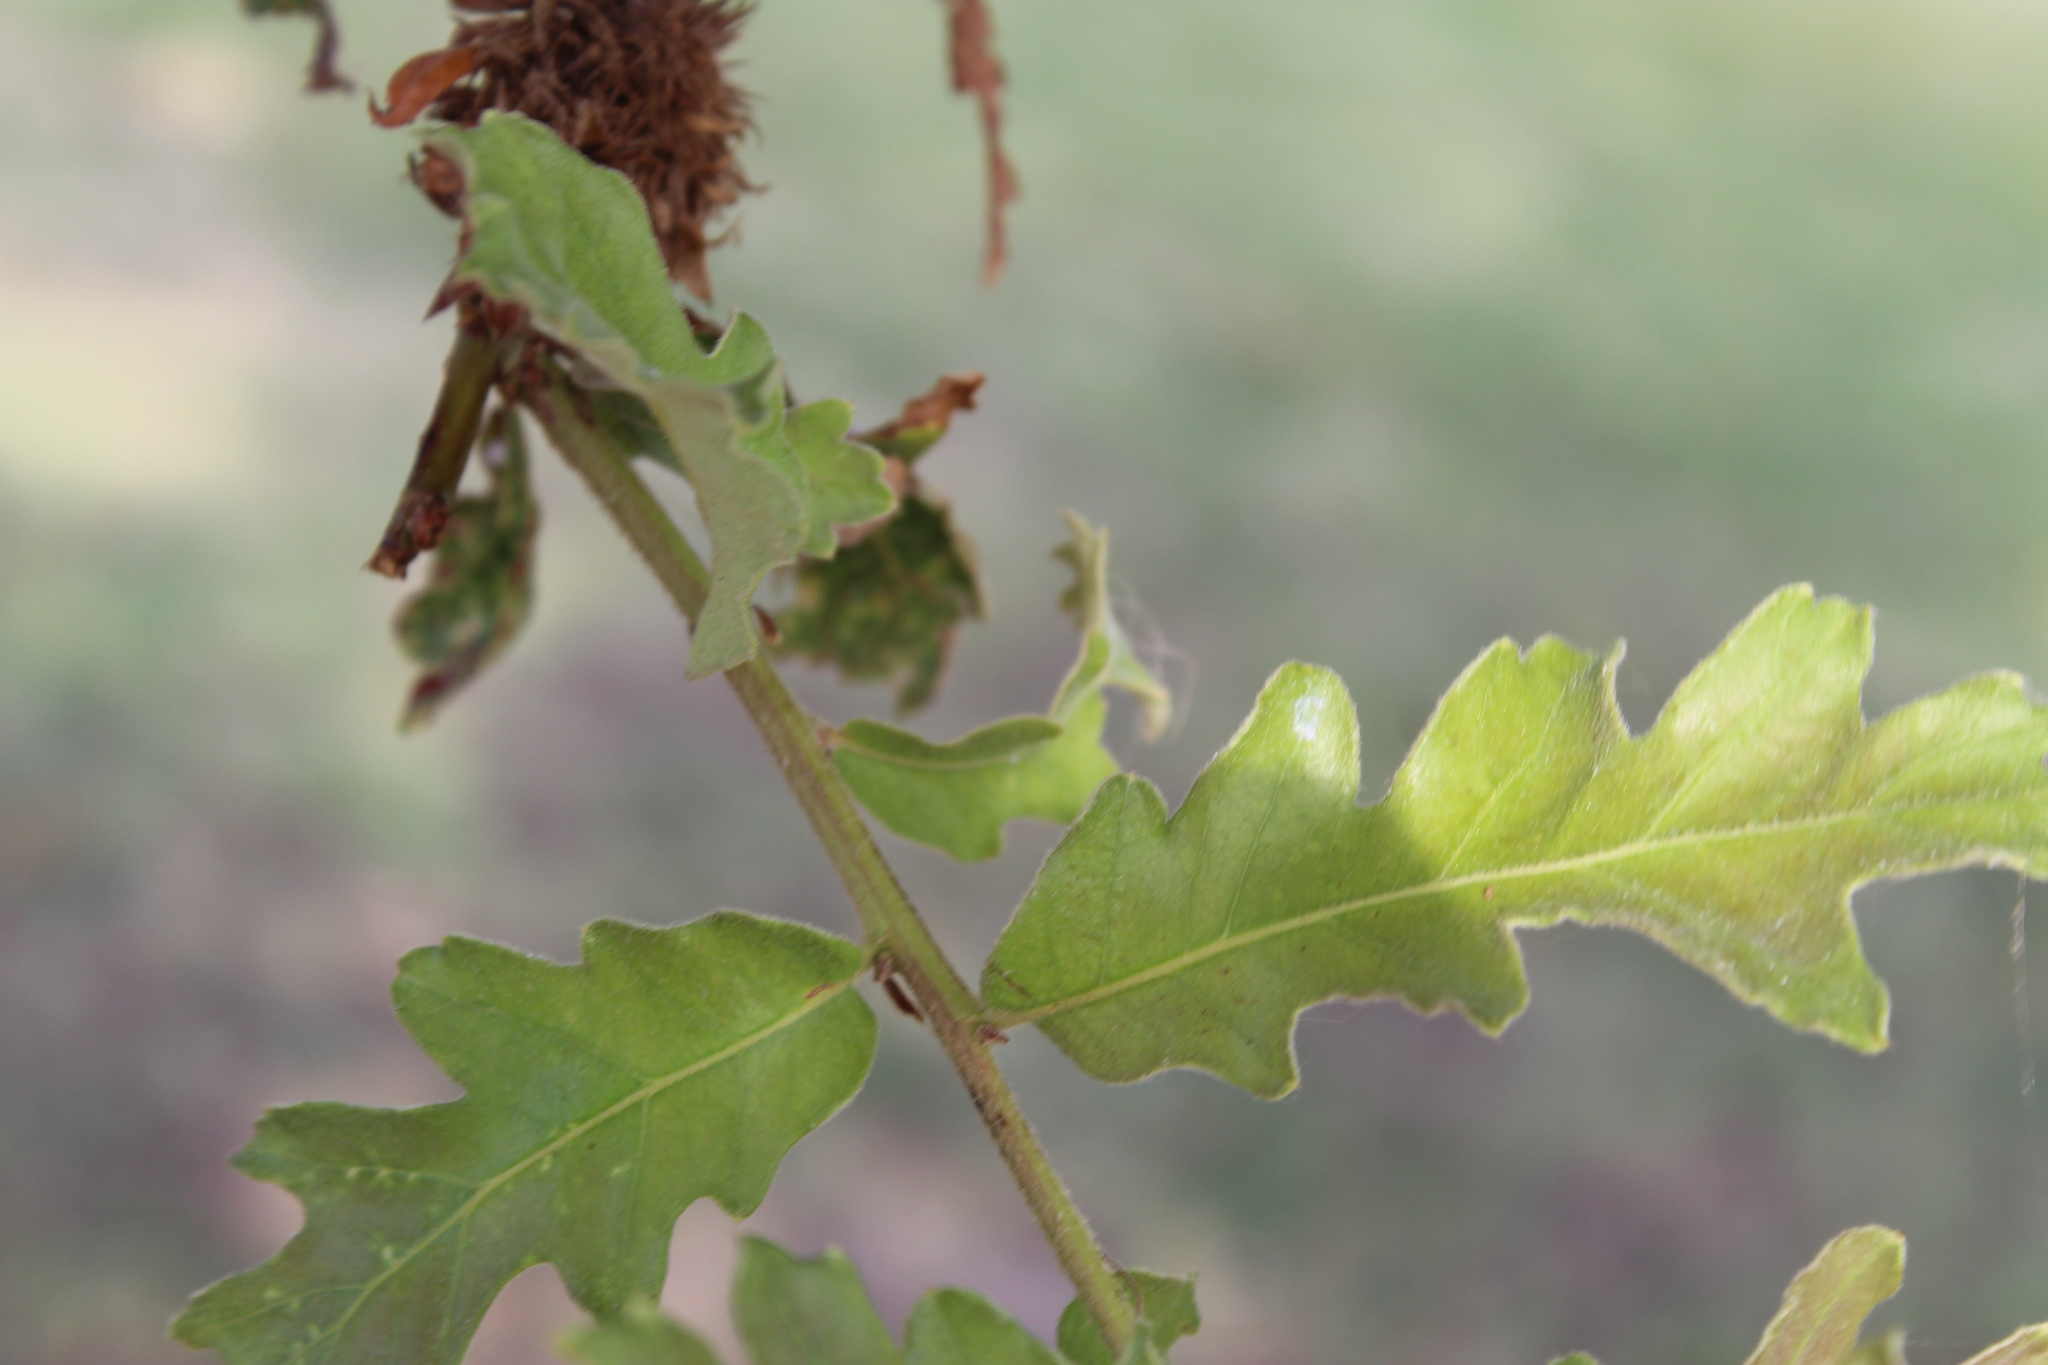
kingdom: Animalia
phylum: Arthropoda
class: Insecta
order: Hymenoptera
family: Cynipidae
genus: Andricus
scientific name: Andricus
